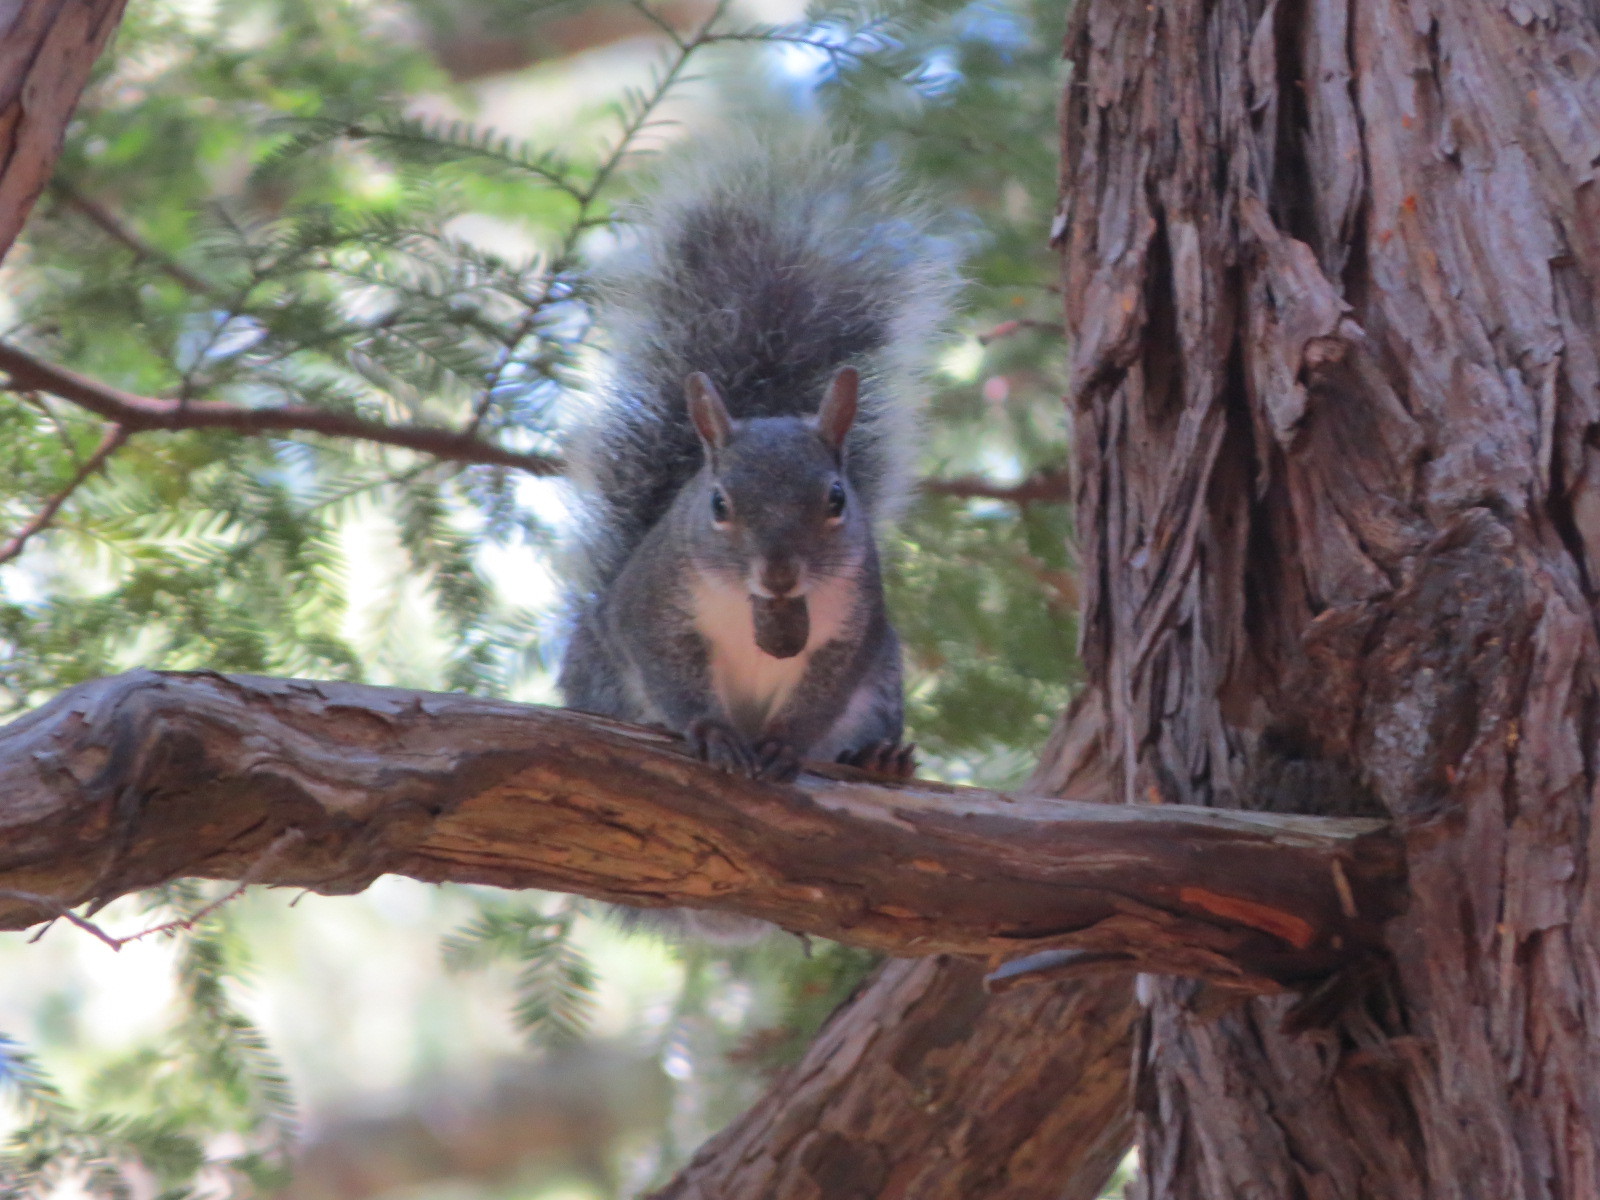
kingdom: Animalia
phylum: Chordata
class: Mammalia
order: Rodentia
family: Sciuridae
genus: Sciurus
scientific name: Sciurus griseus
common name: Western gray squirrel
